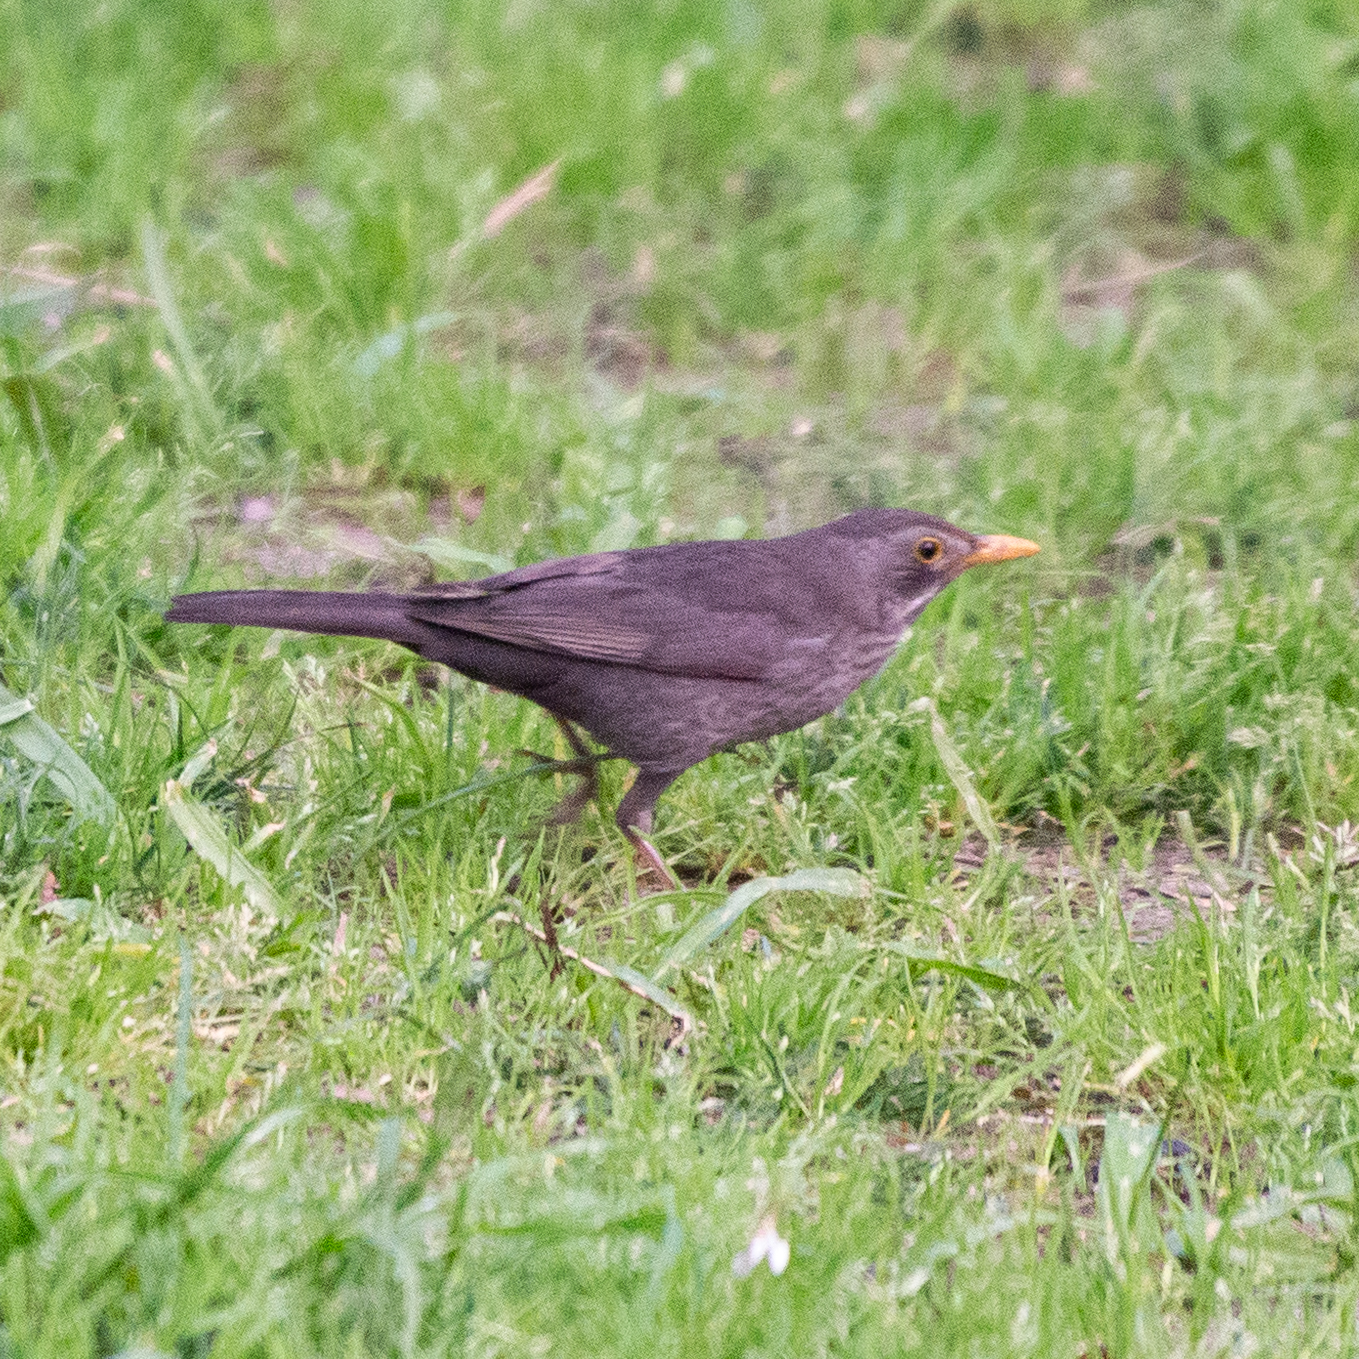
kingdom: Animalia
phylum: Chordata
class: Aves
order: Passeriformes
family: Turdidae
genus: Turdus
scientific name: Turdus merula
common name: Common blackbird
